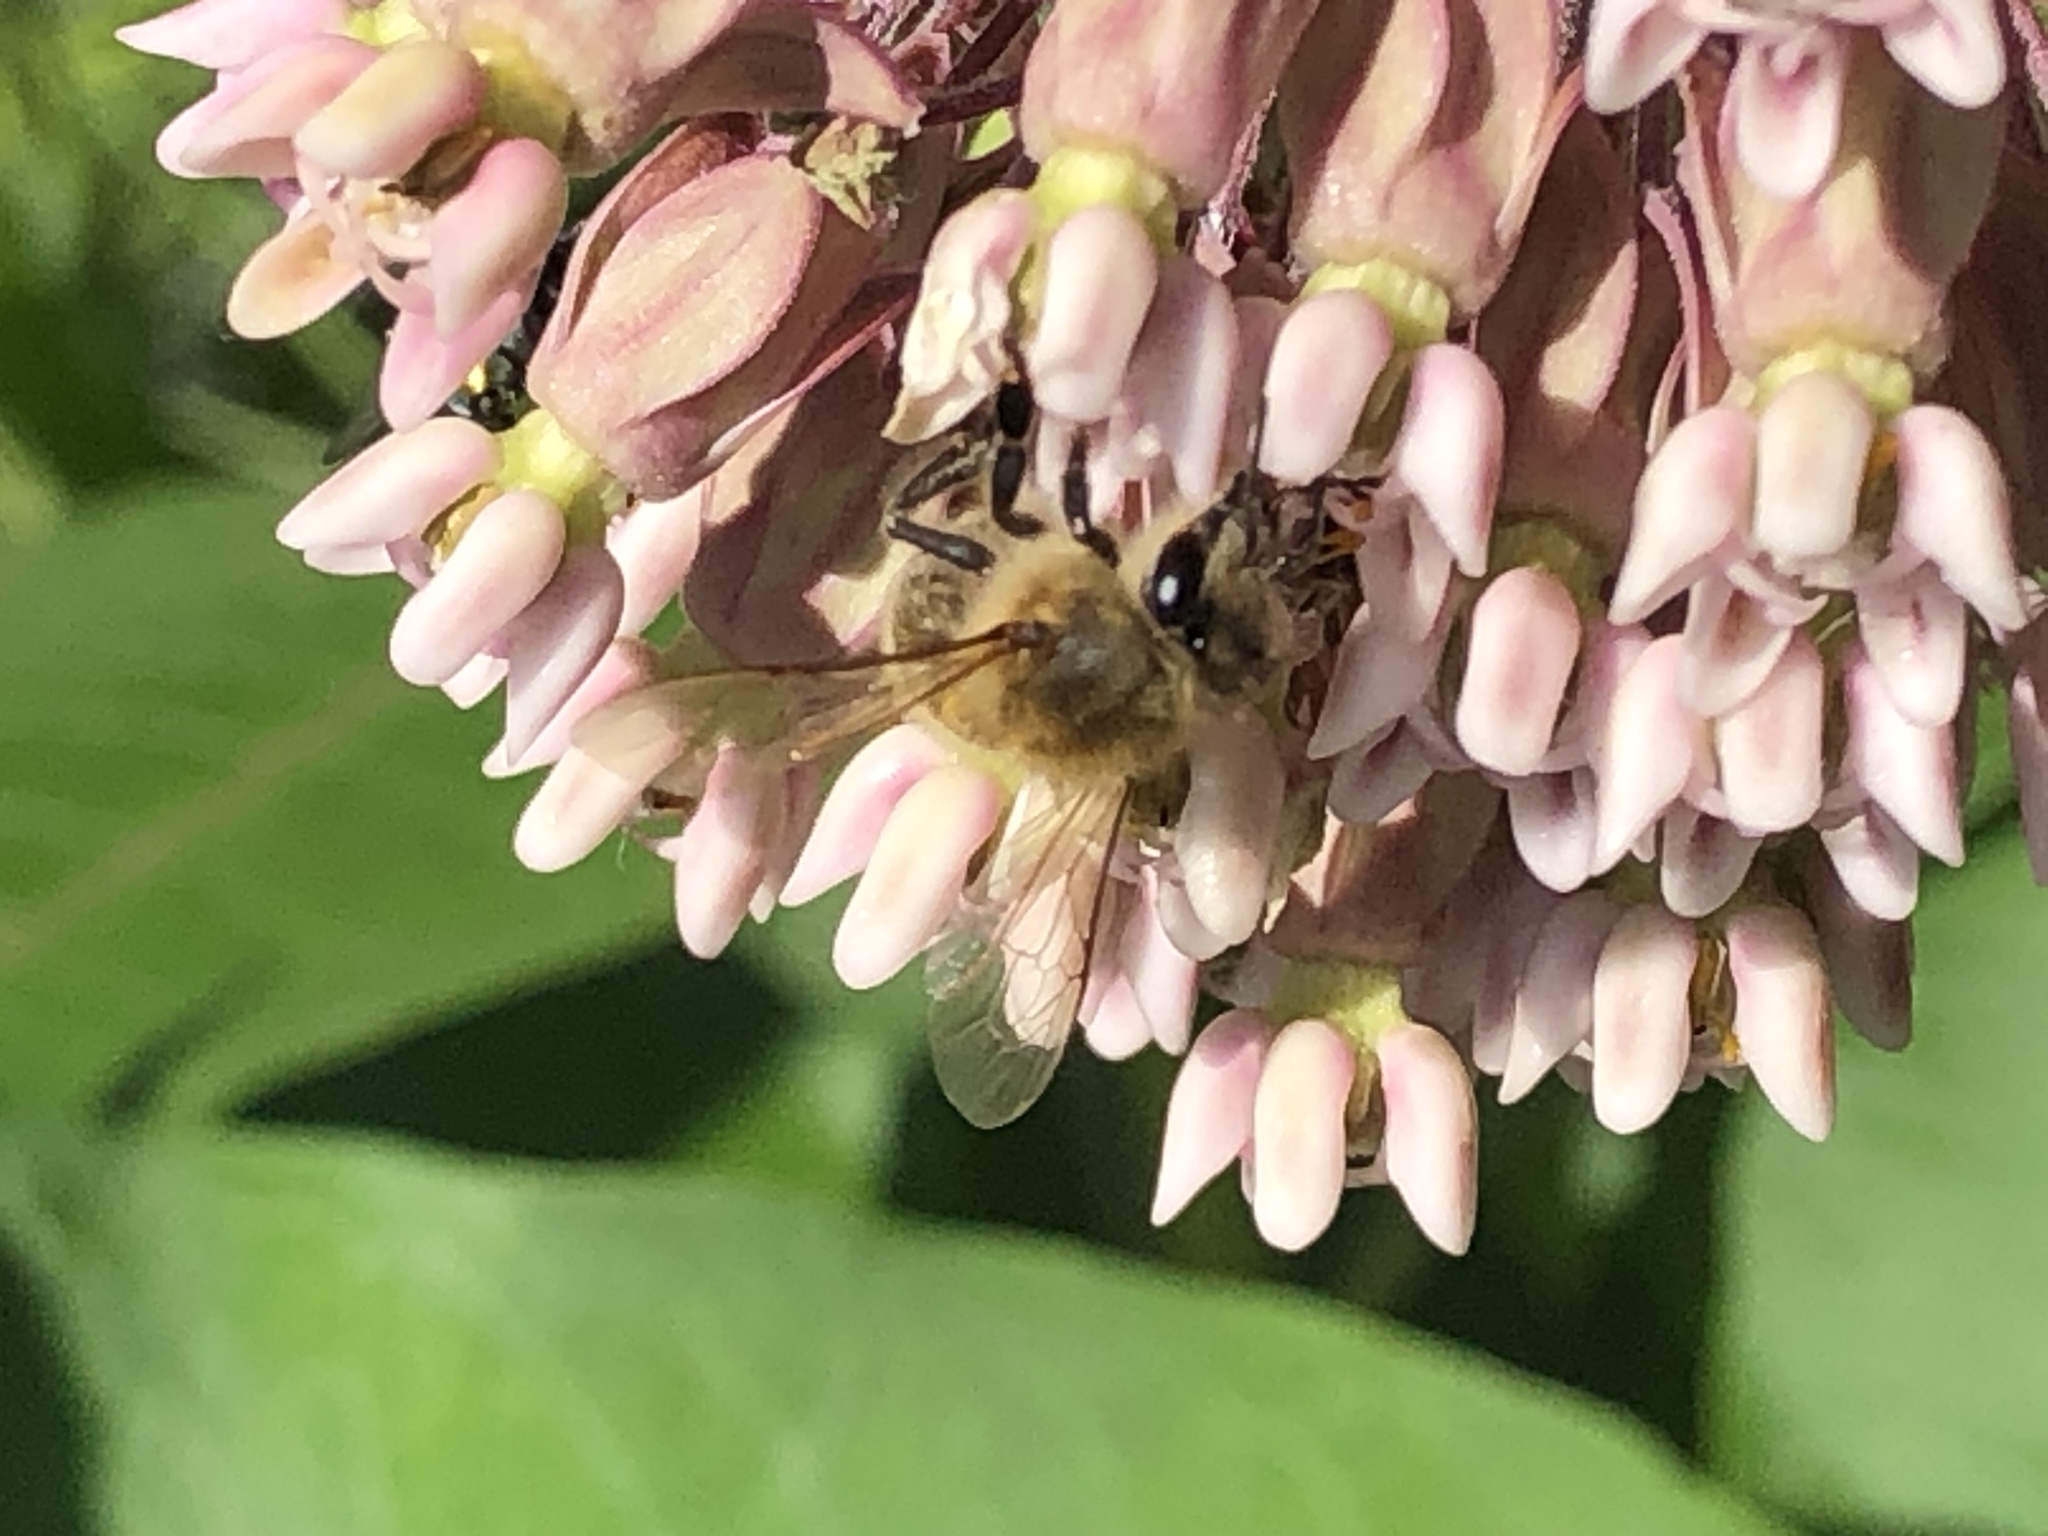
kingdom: Animalia
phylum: Arthropoda
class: Insecta
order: Hymenoptera
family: Apidae
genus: Apis
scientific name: Apis mellifera
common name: Honey bee
